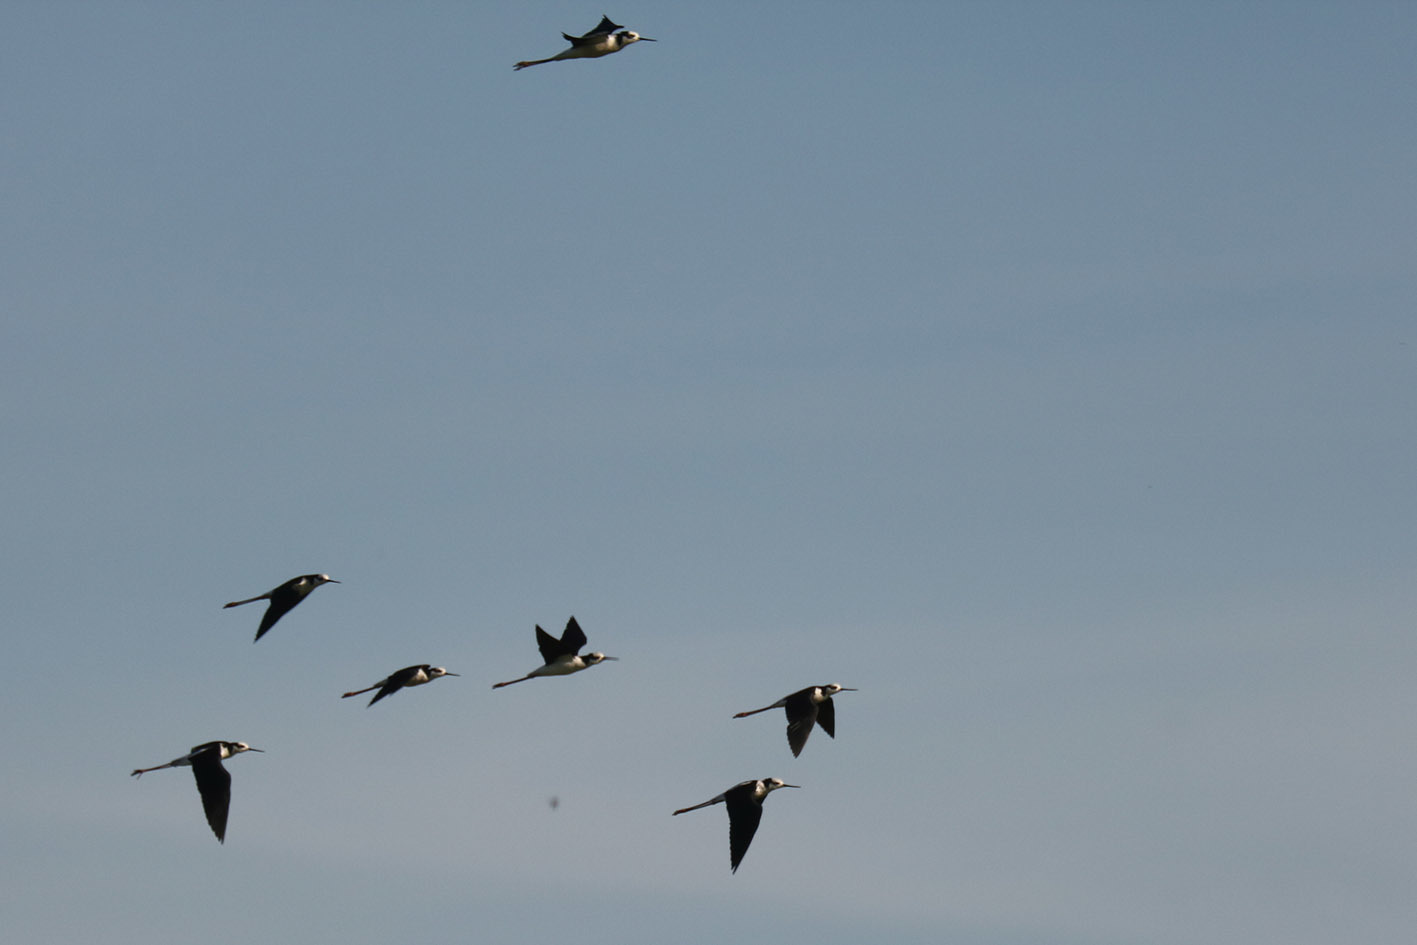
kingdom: Animalia
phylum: Chordata
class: Aves
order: Charadriiformes
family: Recurvirostridae
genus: Himantopus
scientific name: Himantopus mexicanus
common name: Black-necked stilt
